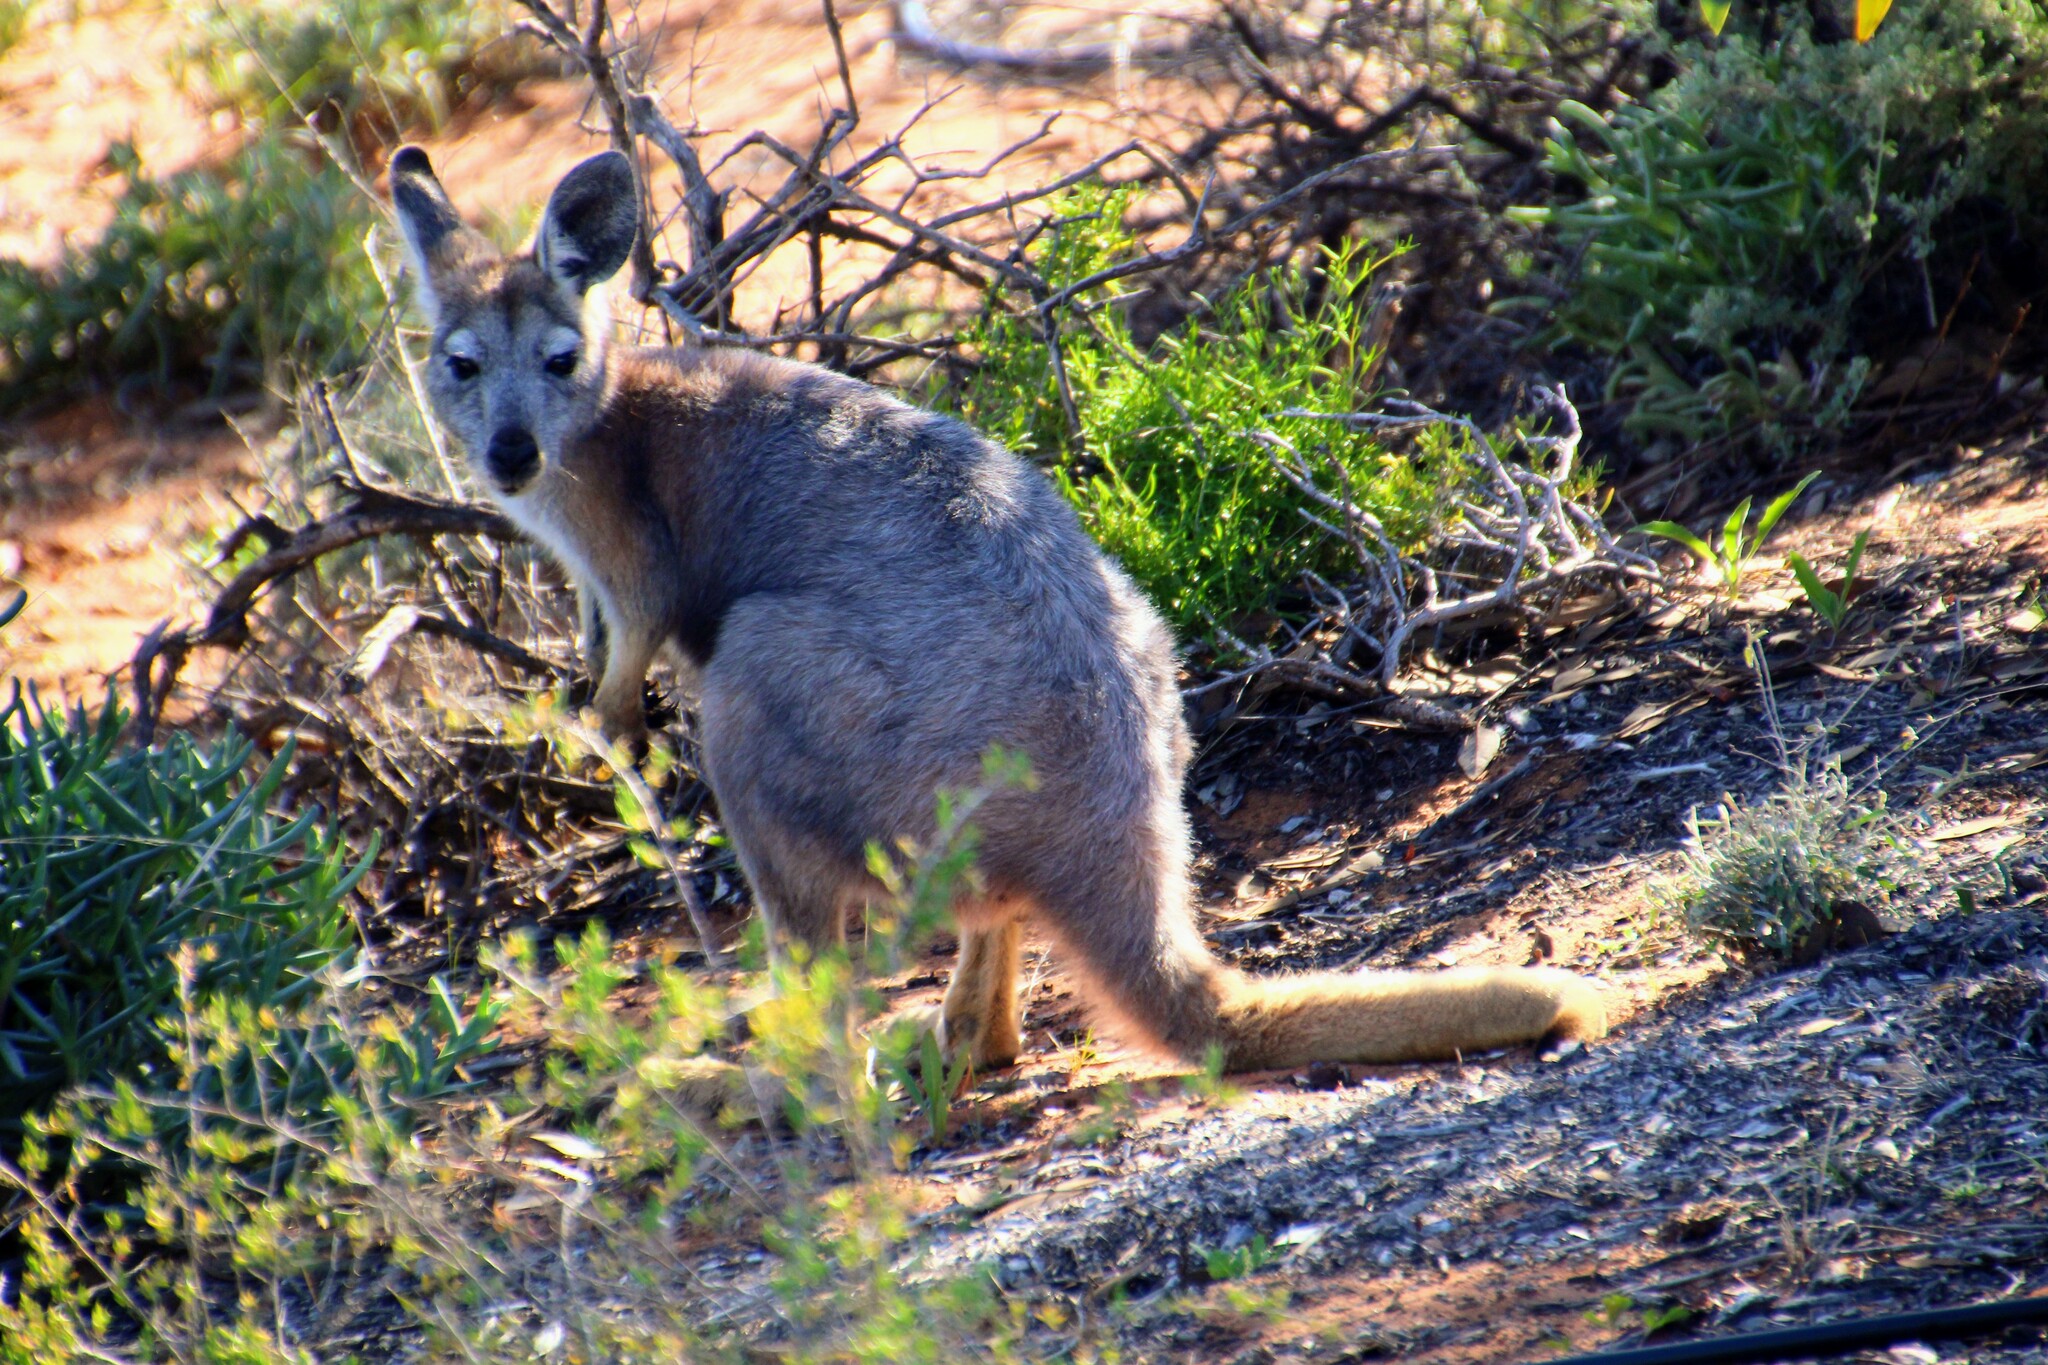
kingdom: Animalia
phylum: Chordata
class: Mammalia
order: Diprotodontia
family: Macropodidae
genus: Macropus
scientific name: Macropus robustus
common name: Eastern wallaroo
